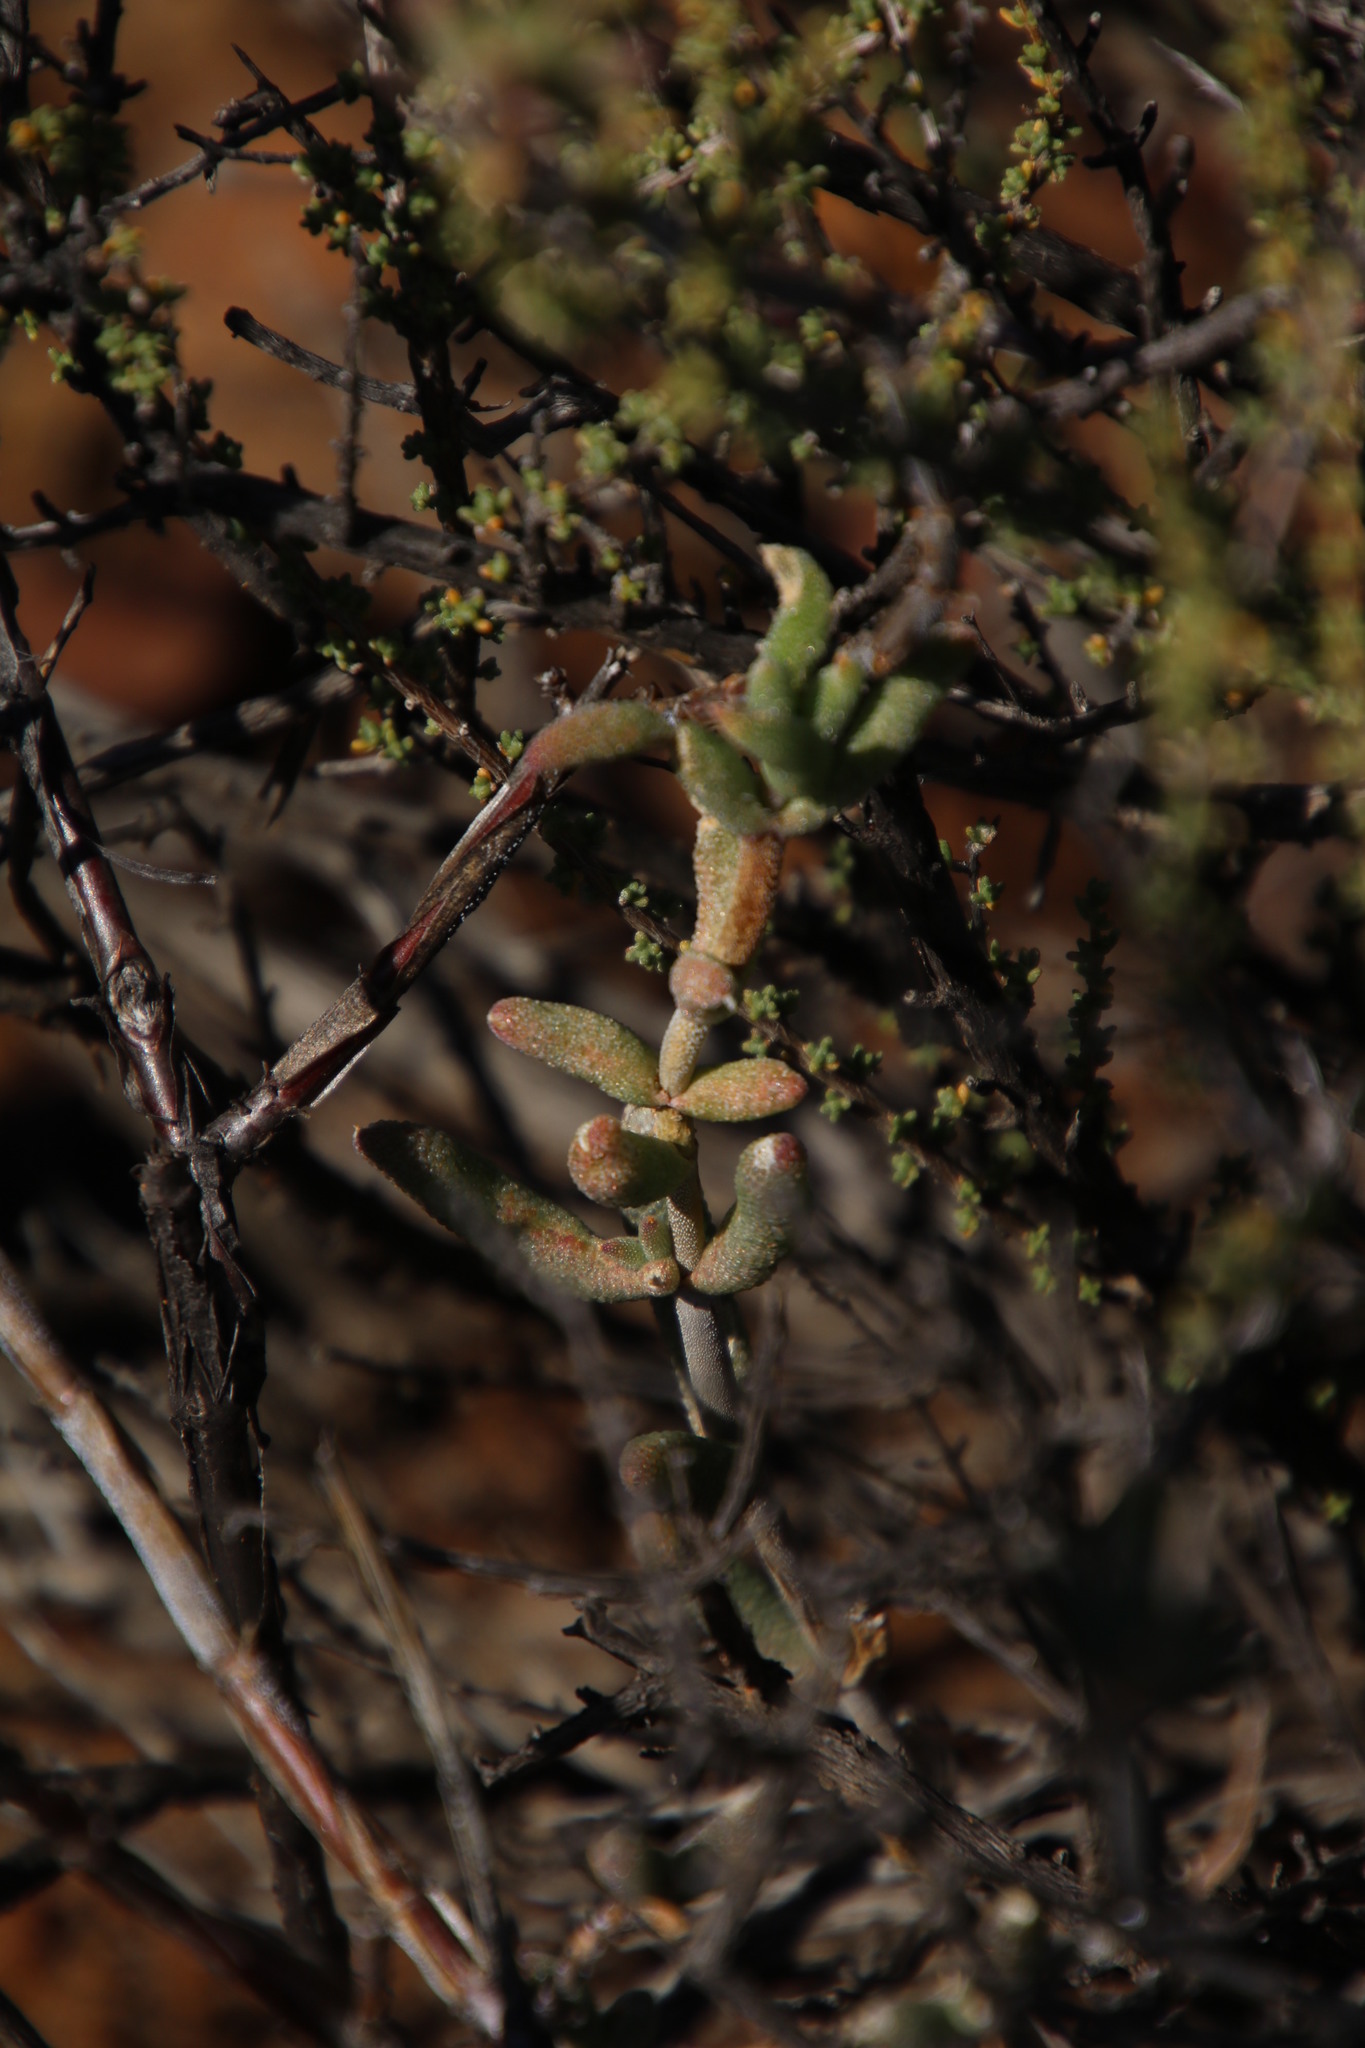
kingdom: Plantae
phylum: Tracheophyta
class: Magnoliopsida
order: Caryophyllales
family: Aizoaceae
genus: Trichodiadema
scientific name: Trichodiadema pomeridianum
